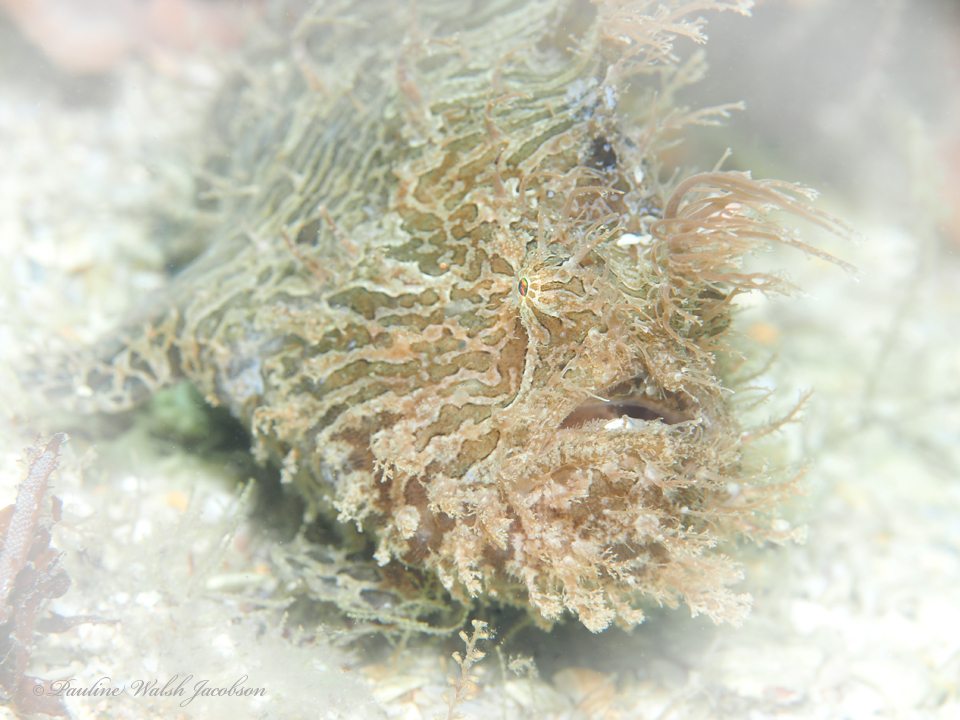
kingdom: Animalia
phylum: Chordata
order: Lophiiformes
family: Antennariidae
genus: Antennarius
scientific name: Antennarius striatus
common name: Striated frogfish
